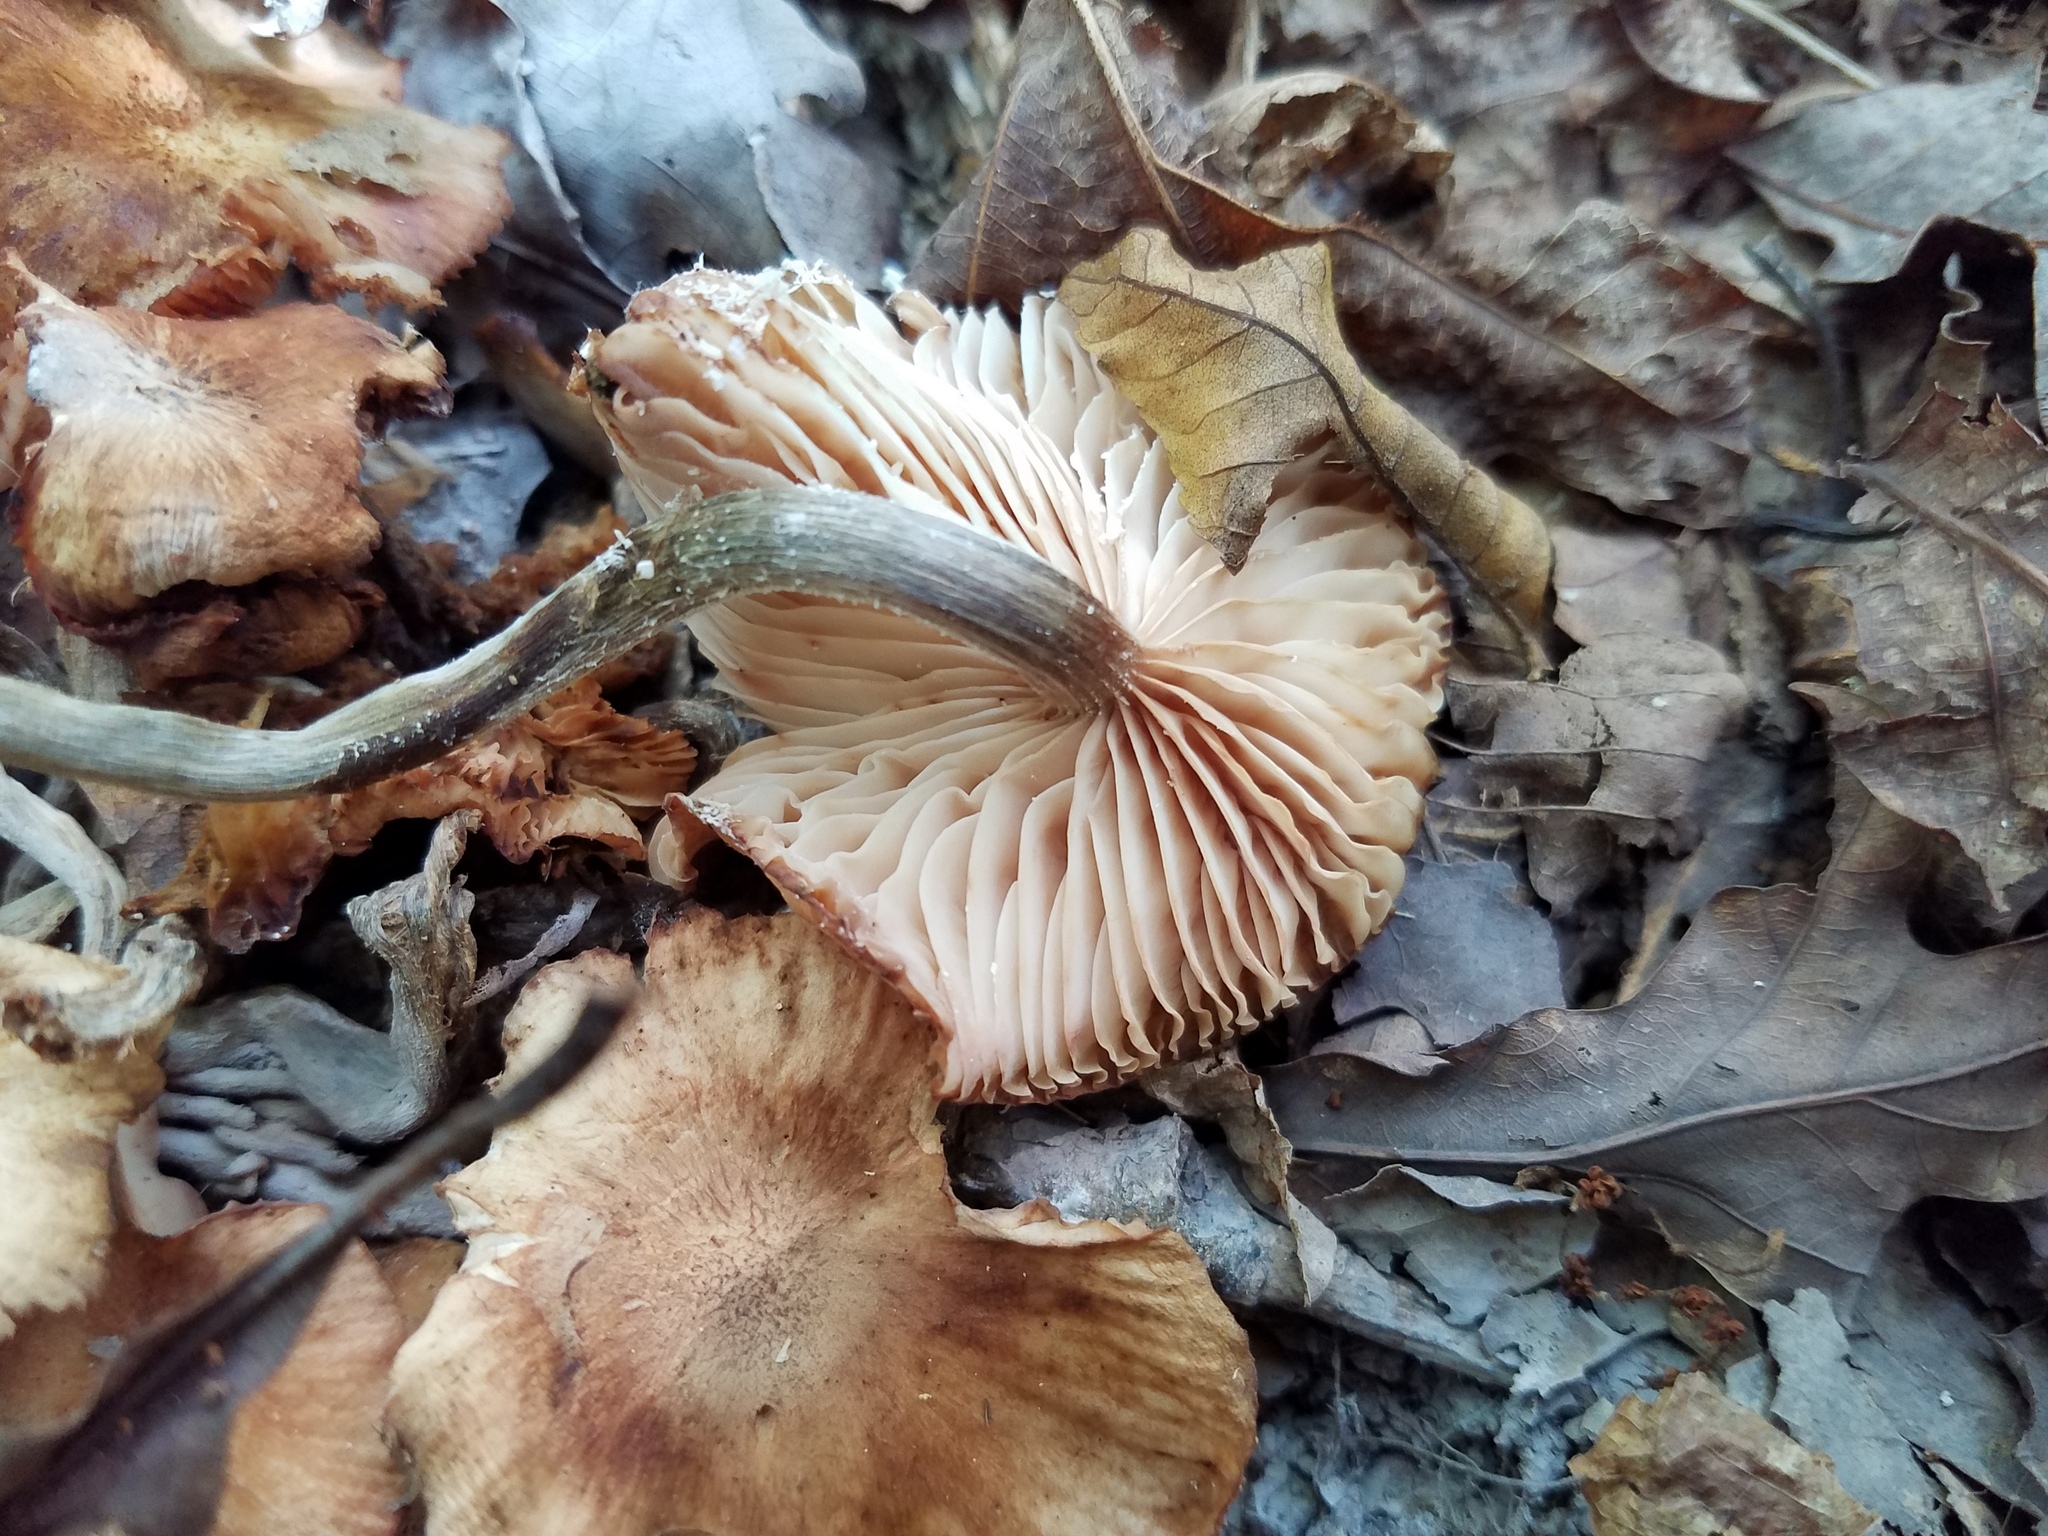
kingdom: Fungi
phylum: Basidiomycota
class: Agaricomycetes
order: Agaricales
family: Physalacriaceae
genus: Desarmillaria
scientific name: Desarmillaria caespitosa
